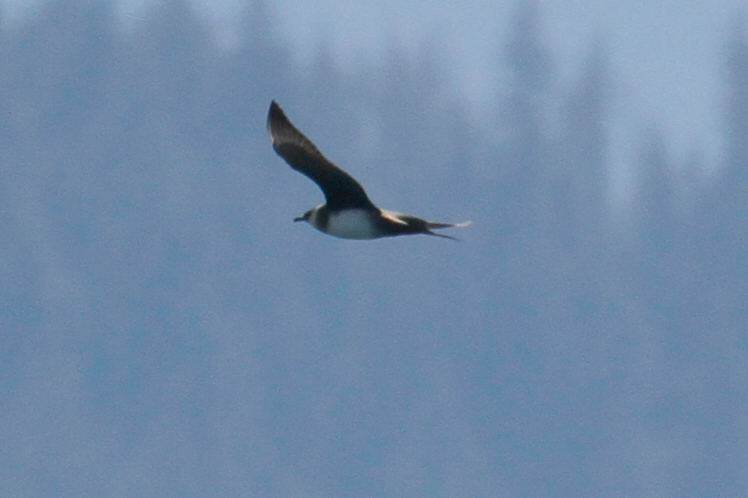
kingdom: Animalia
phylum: Chordata
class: Aves
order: Charadriiformes
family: Stercorariidae
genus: Stercorarius
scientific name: Stercorarius parasiticus
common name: Parasitic jaeger
